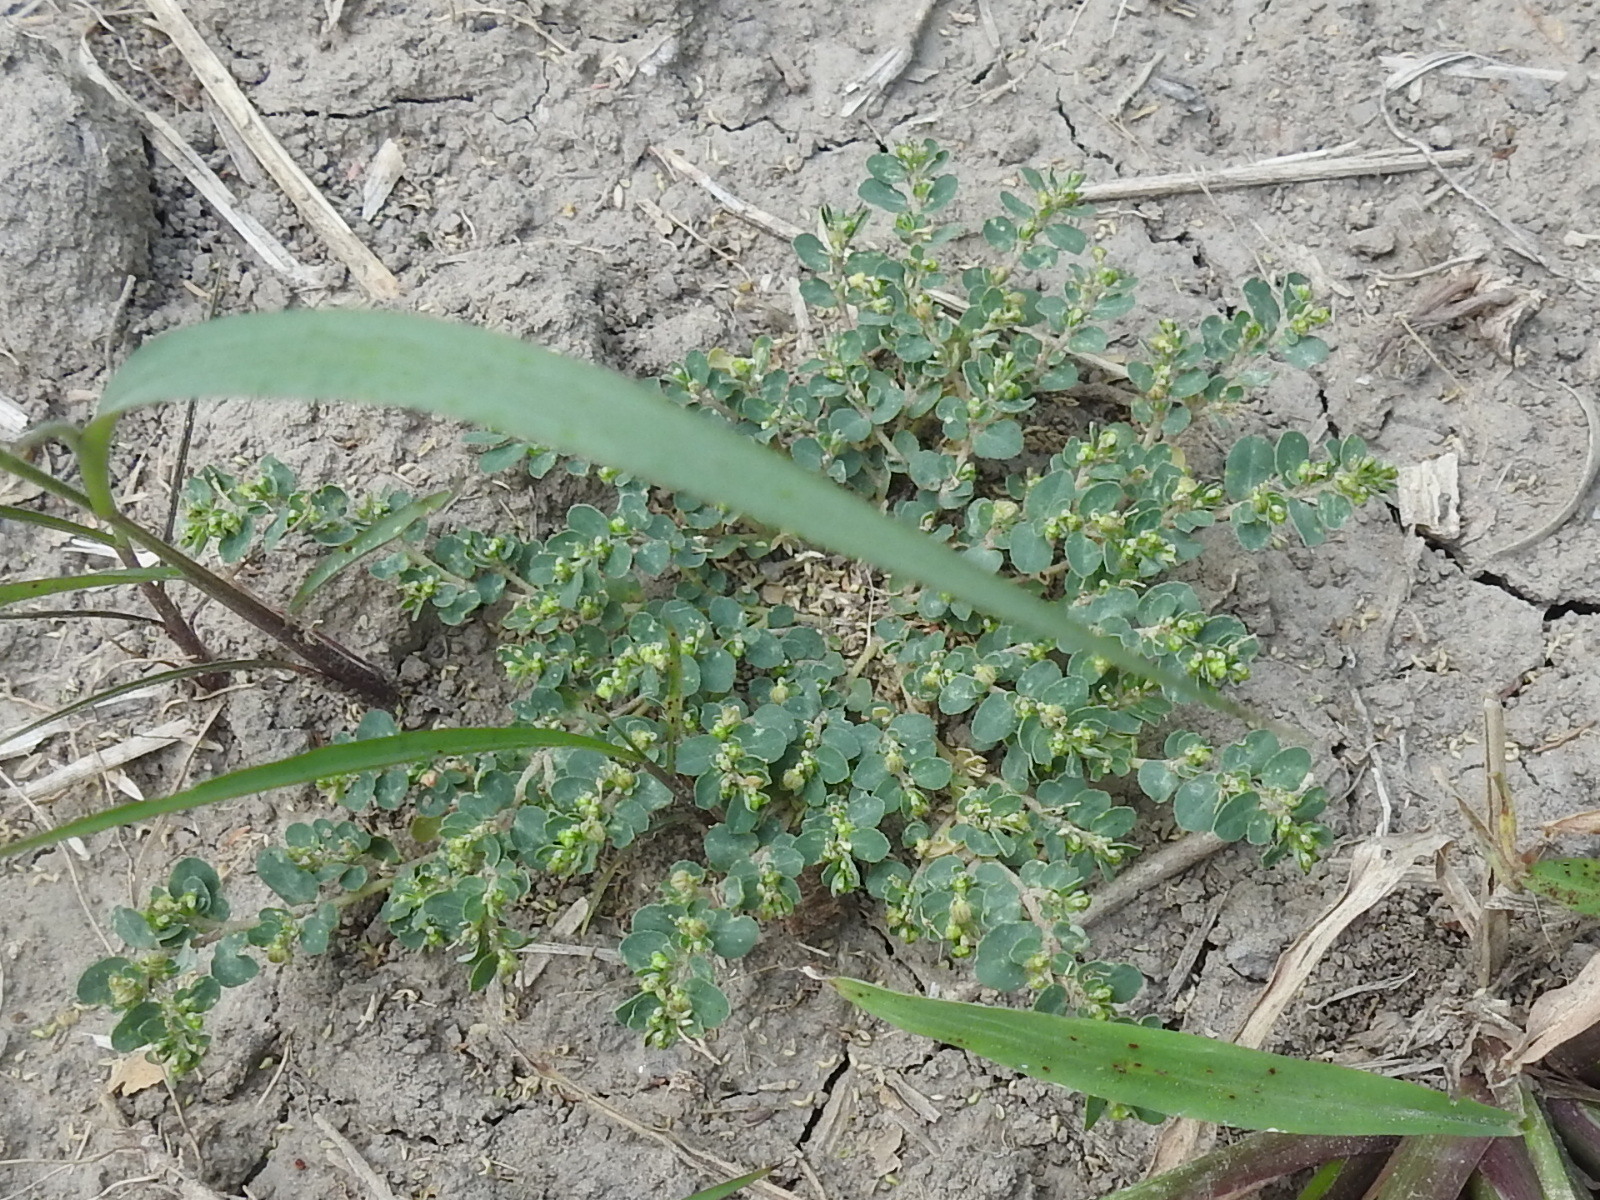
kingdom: Plantae
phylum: Tracheophyta
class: Magnoliopsida
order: Malpighiales
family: Euphorbiaceae
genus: Euphorbia
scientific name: Euphorbia prostrata
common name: Prostrate sandmat
